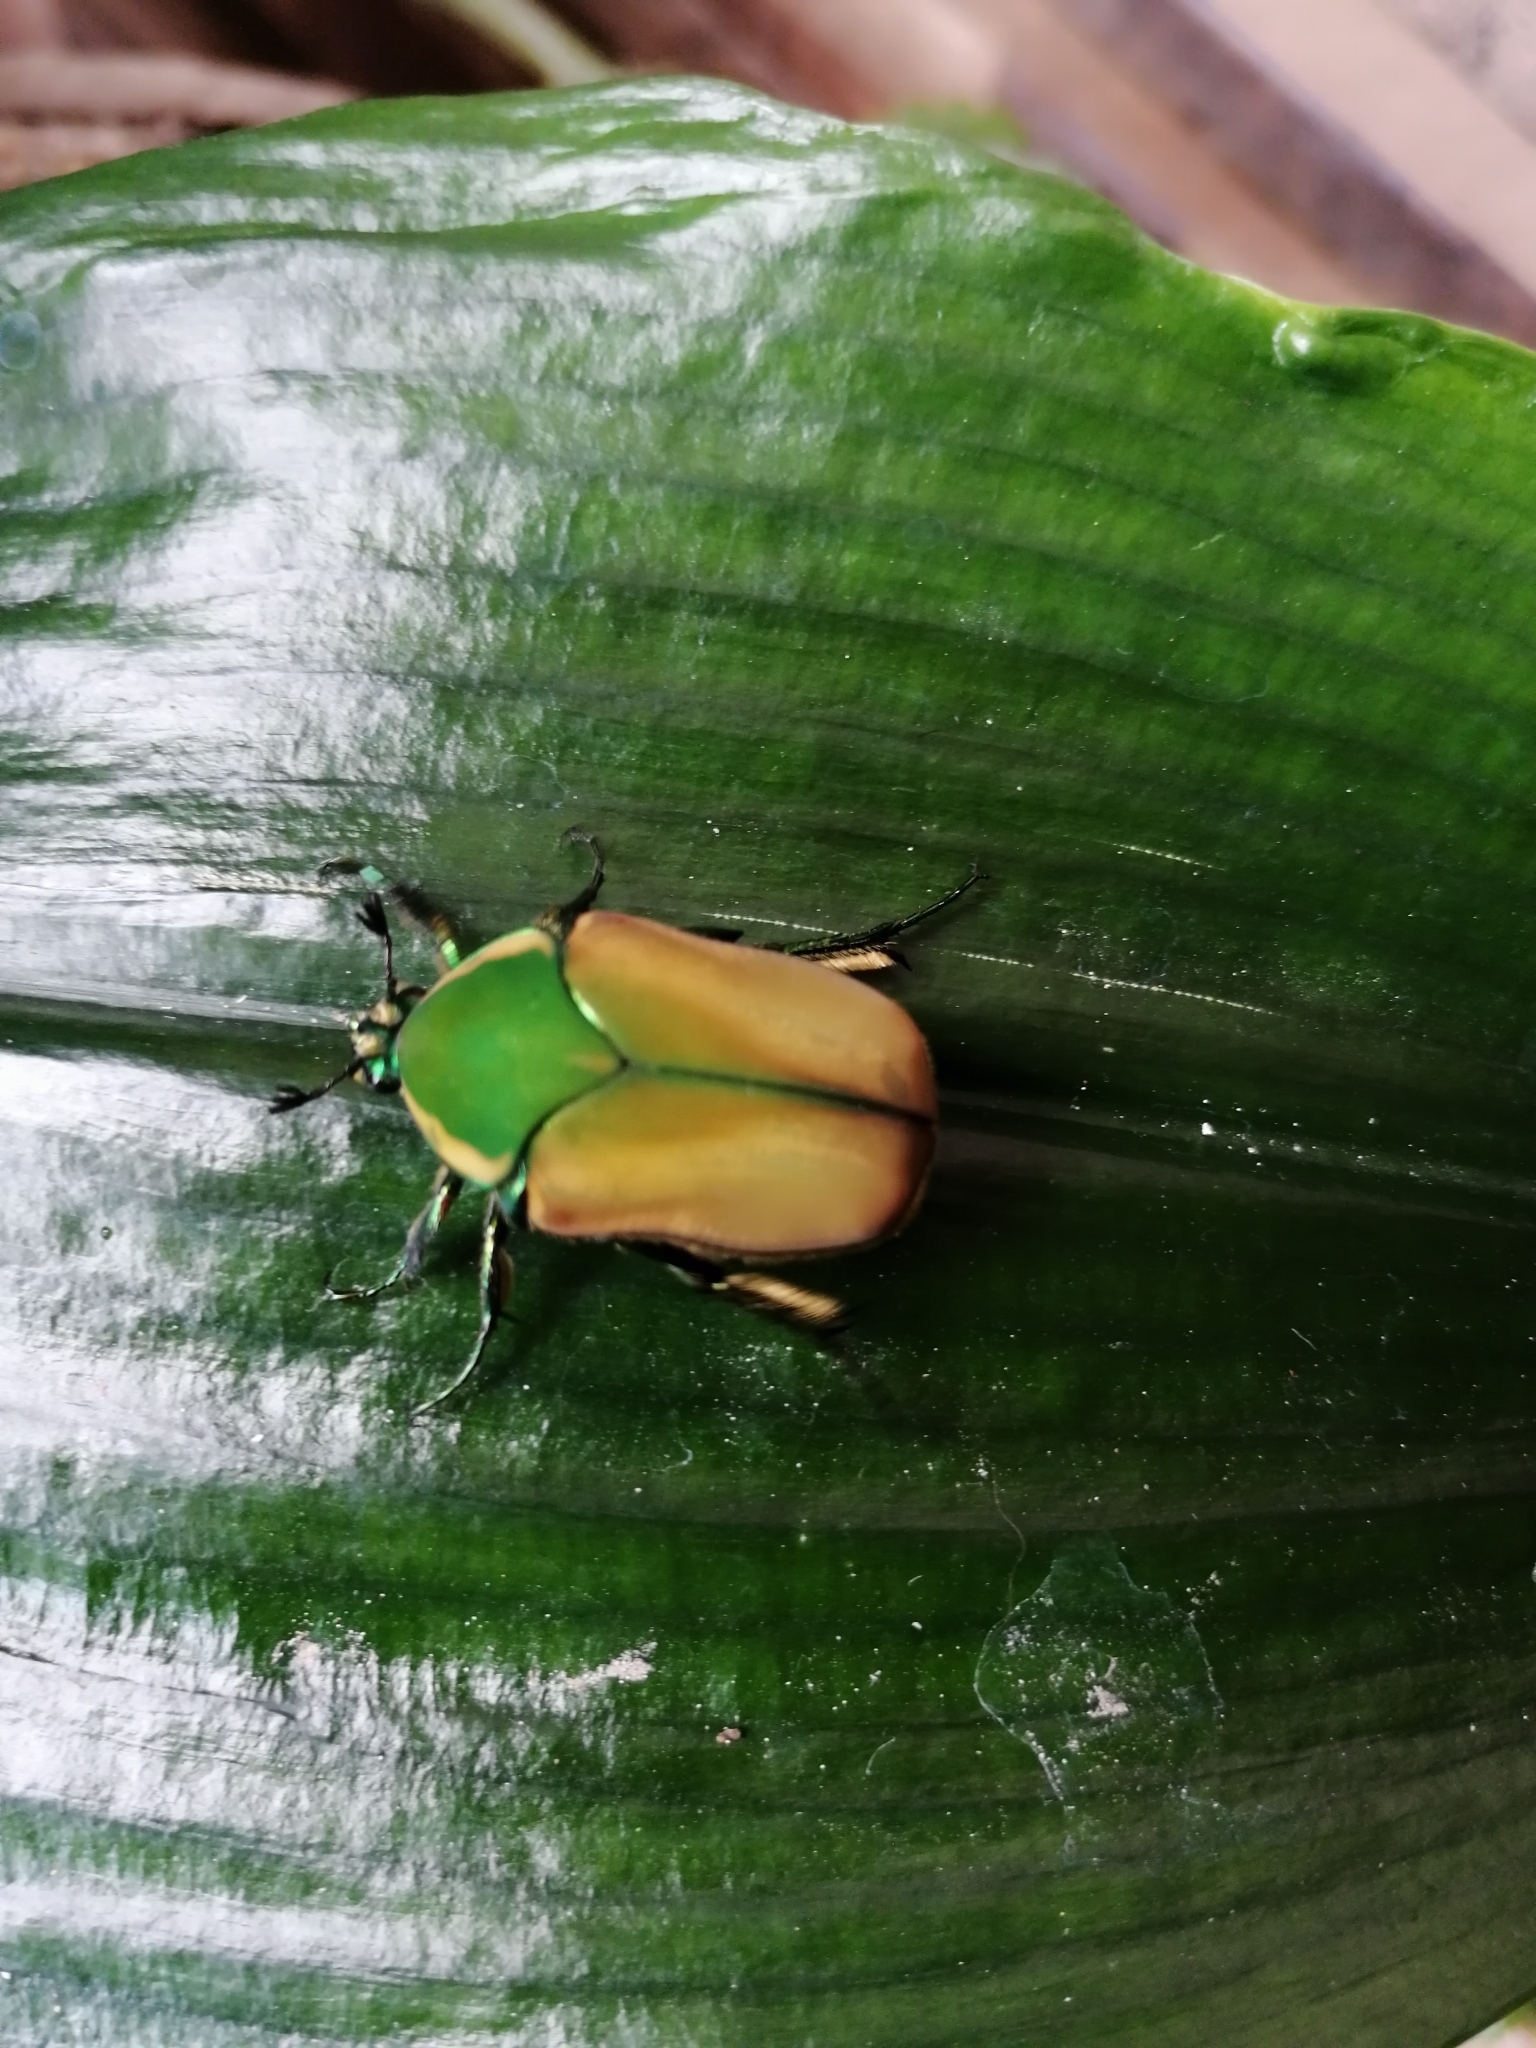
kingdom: Animalia
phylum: Arthropoda
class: Insecta
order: Coleoptera
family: Scarabaeidae
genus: Cotinis
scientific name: Cotinis mutabilis
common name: Figeater beetle
